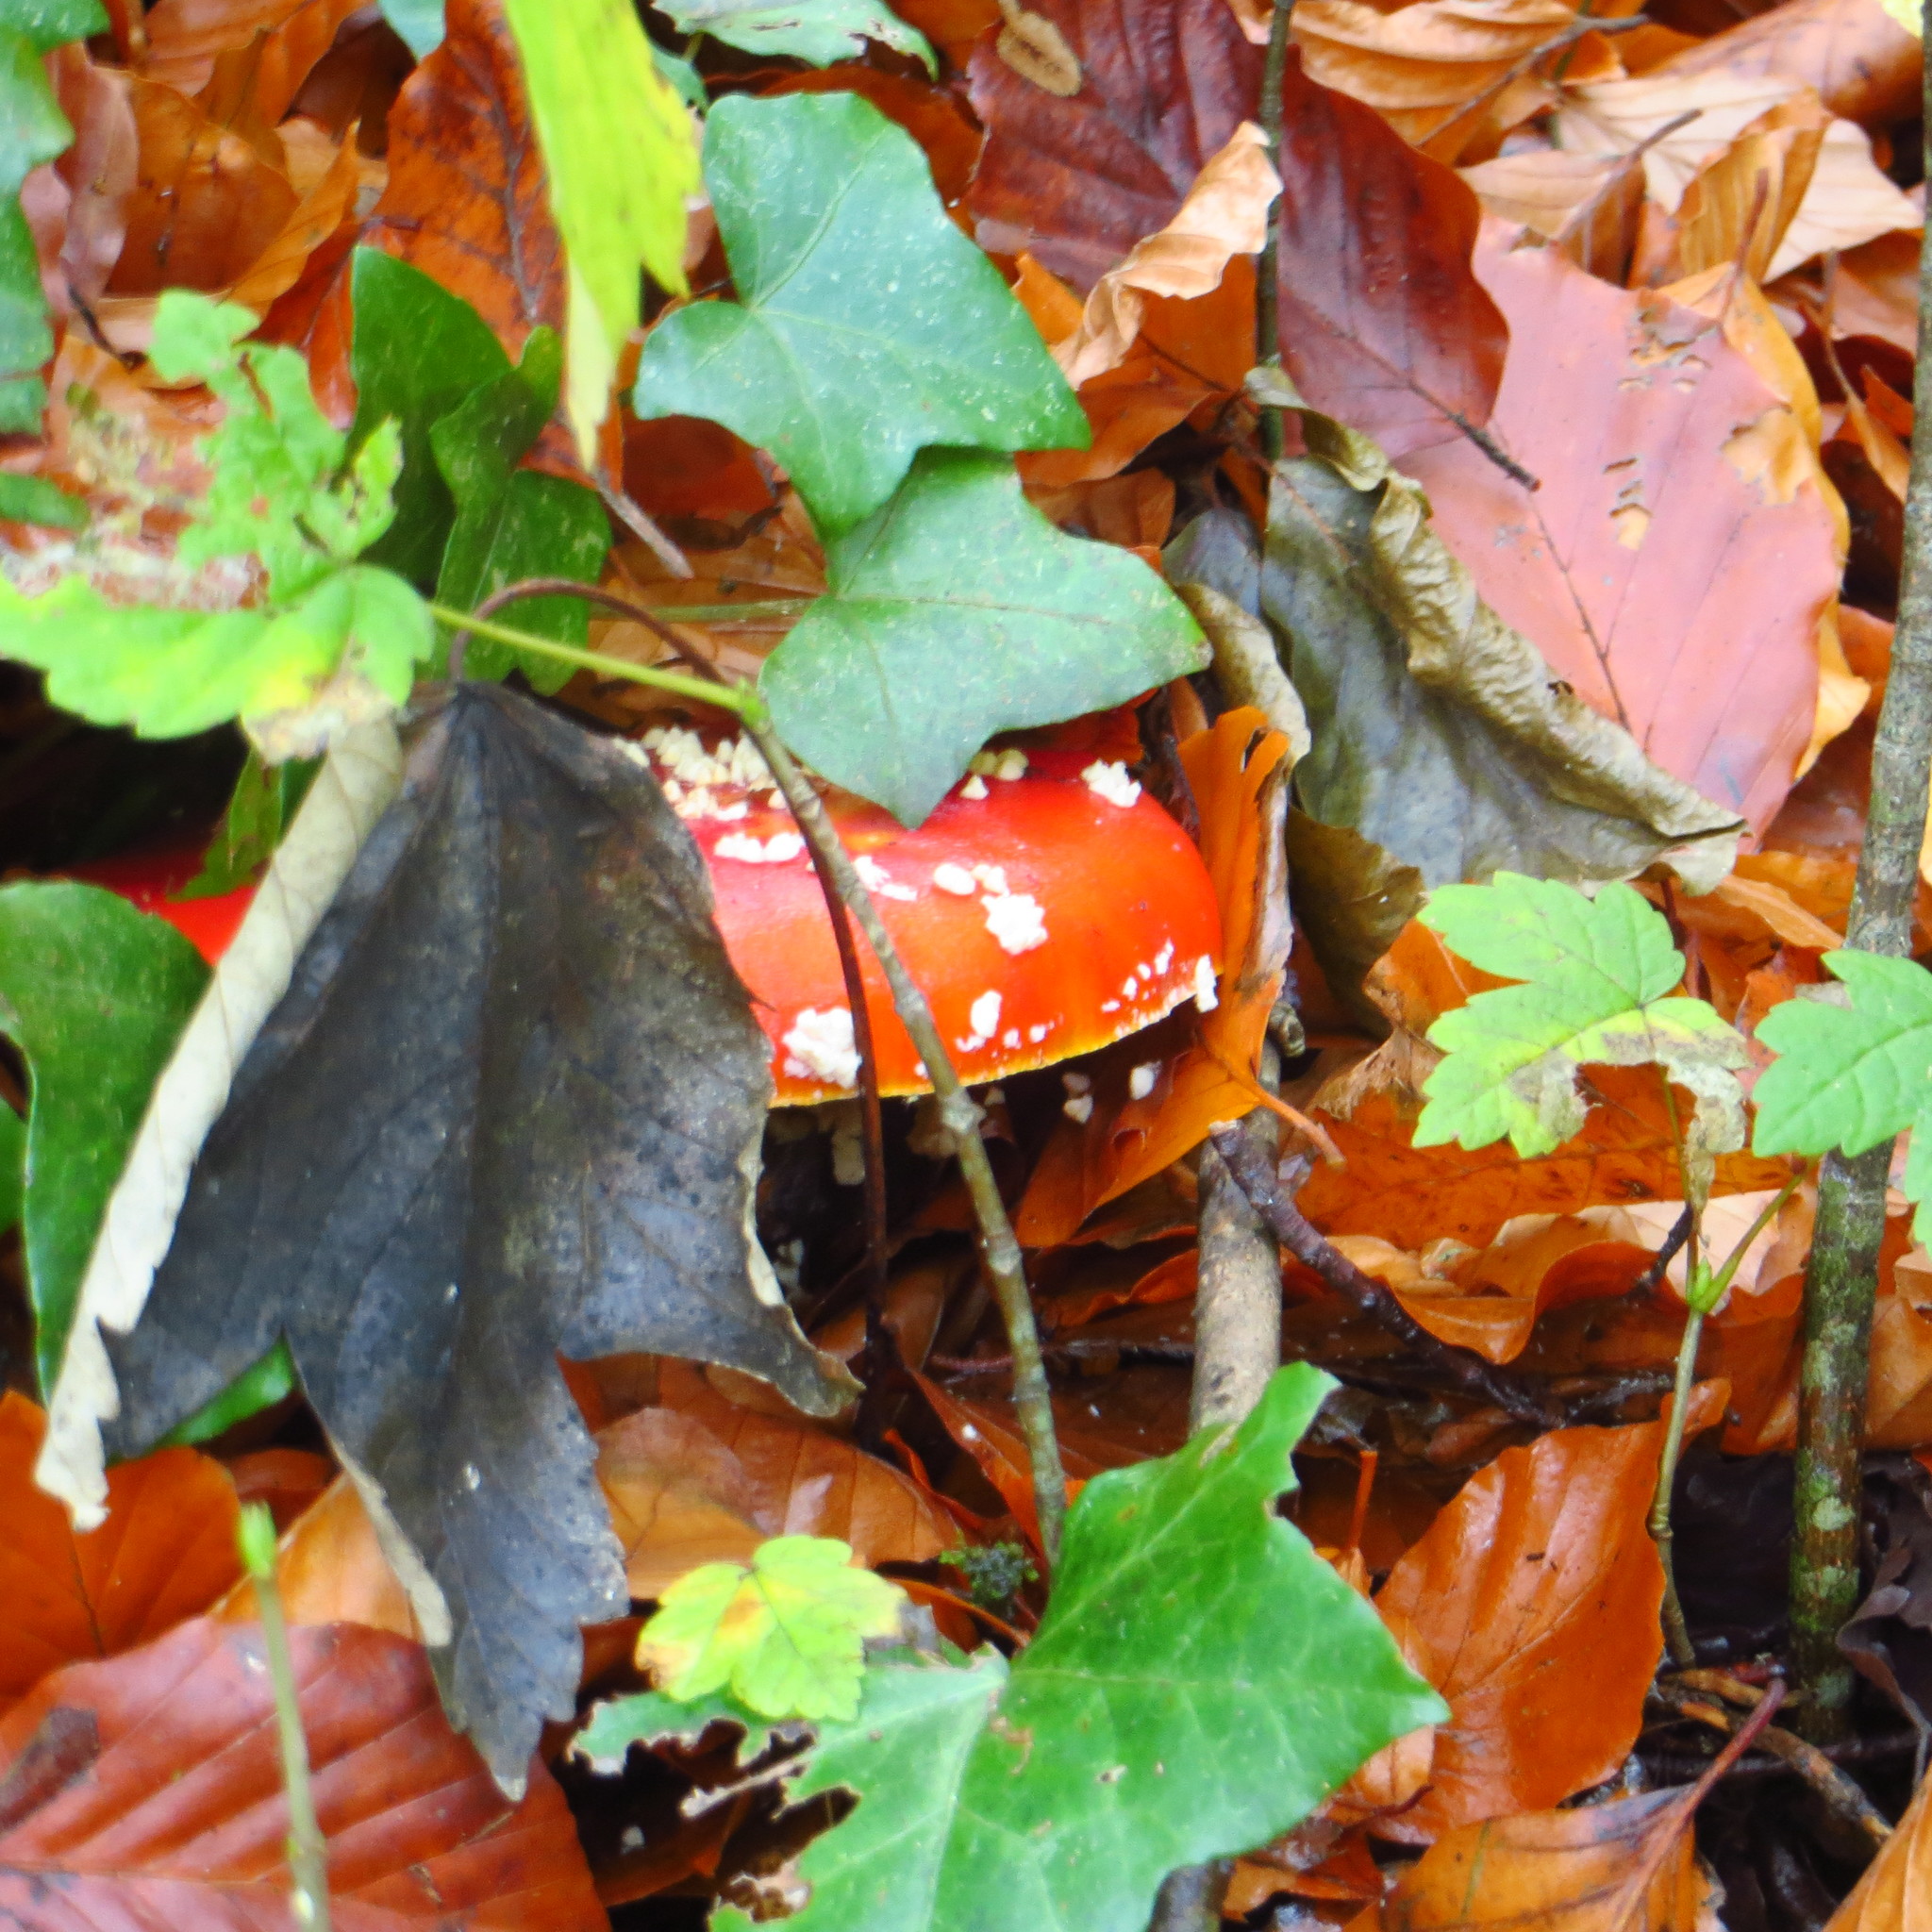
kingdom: Fungi
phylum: Basidiomycota
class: Agaricomycetes
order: Agaricales
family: Amanitaceae
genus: Amanita
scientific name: Amanita muscaria
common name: Fly agaric
